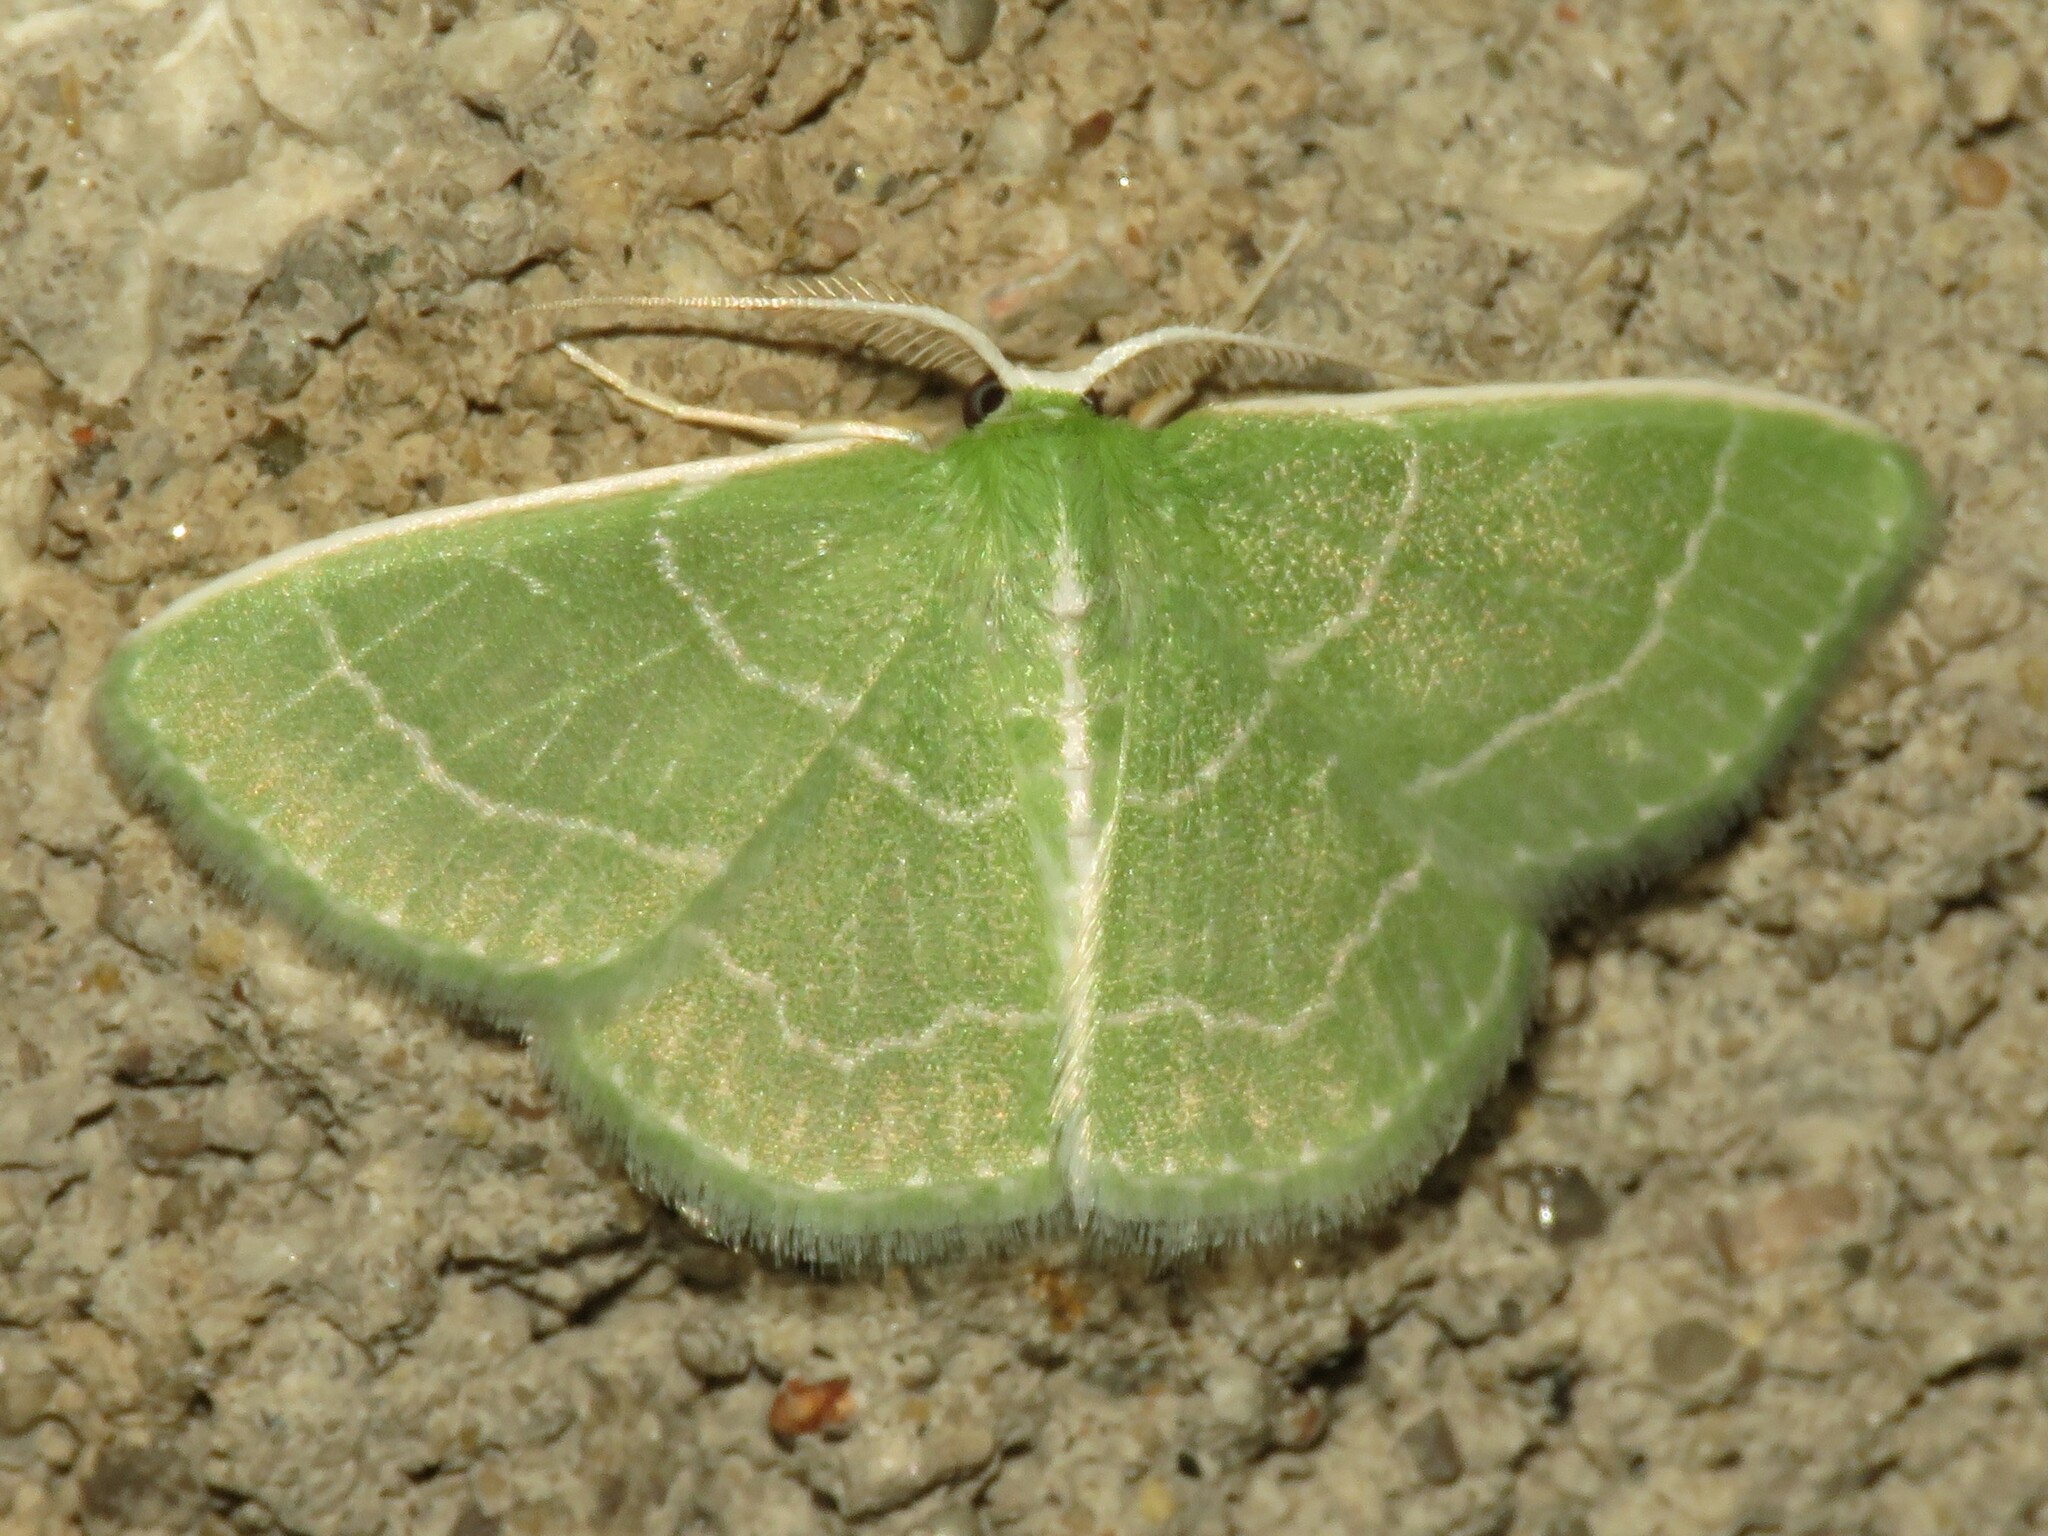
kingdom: Animalia
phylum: Arthropoda
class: Insecta
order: Lepidoptera
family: Geometridae
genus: Synchlora
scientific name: Synchlora aerata
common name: Wavy-lined emerald
